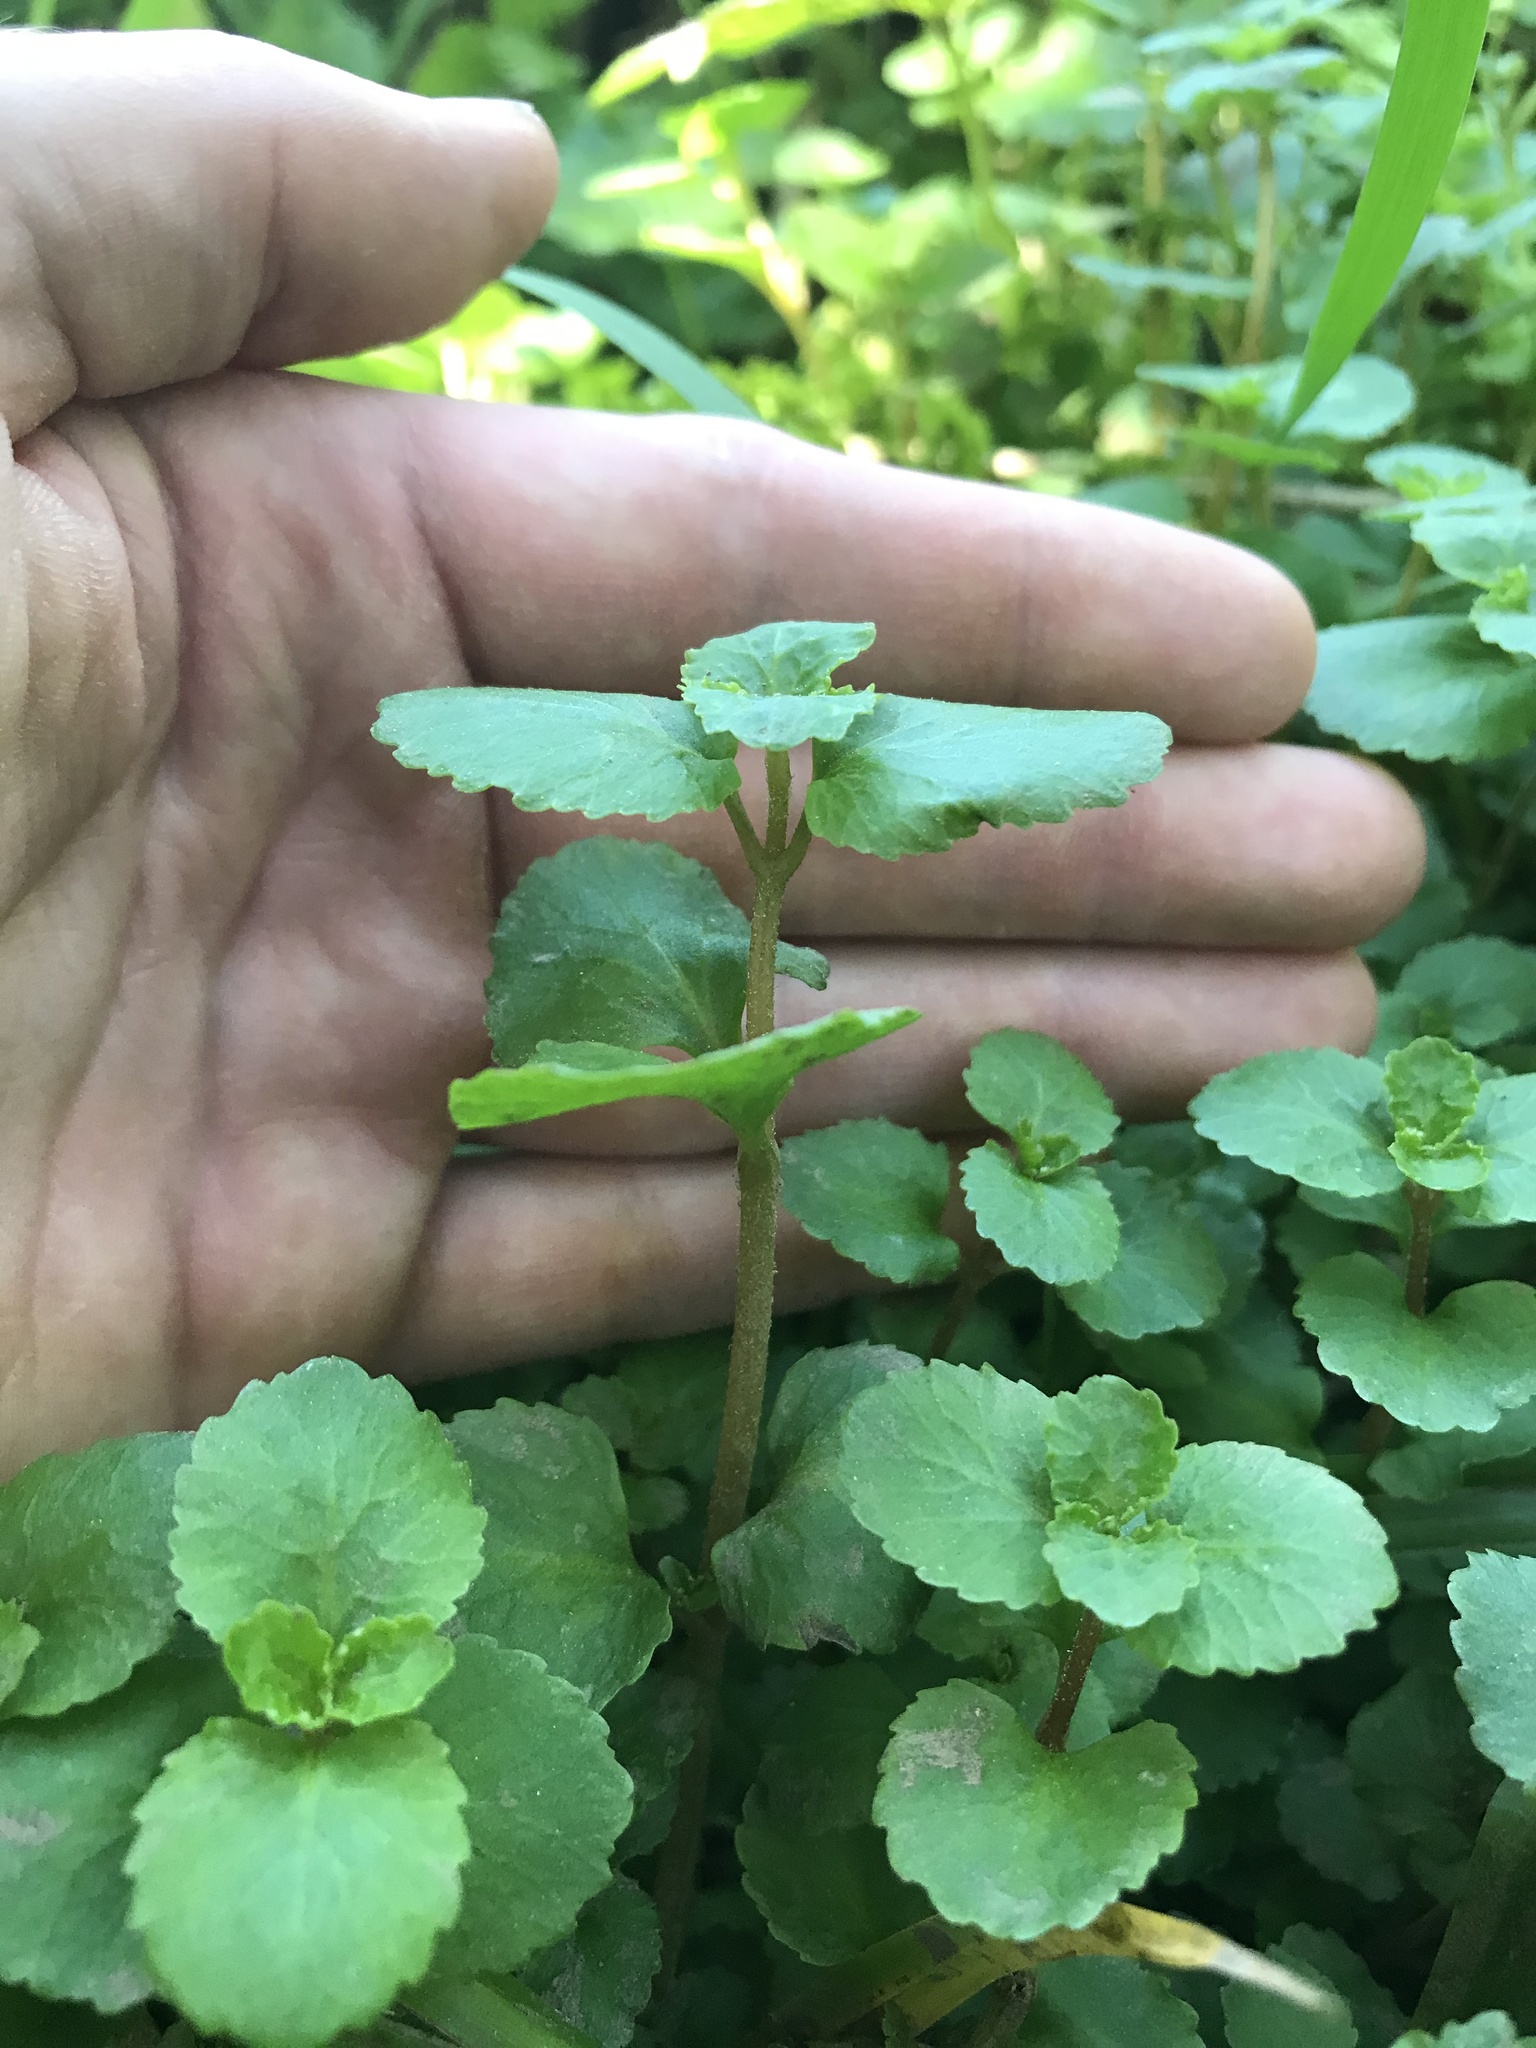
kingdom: Plantae
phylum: Tracheophyta
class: Magnoliopsida
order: Saxifragales
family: Saxifragaceae
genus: Chrysosplenium
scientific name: Chrysosplenium glechomifolium
